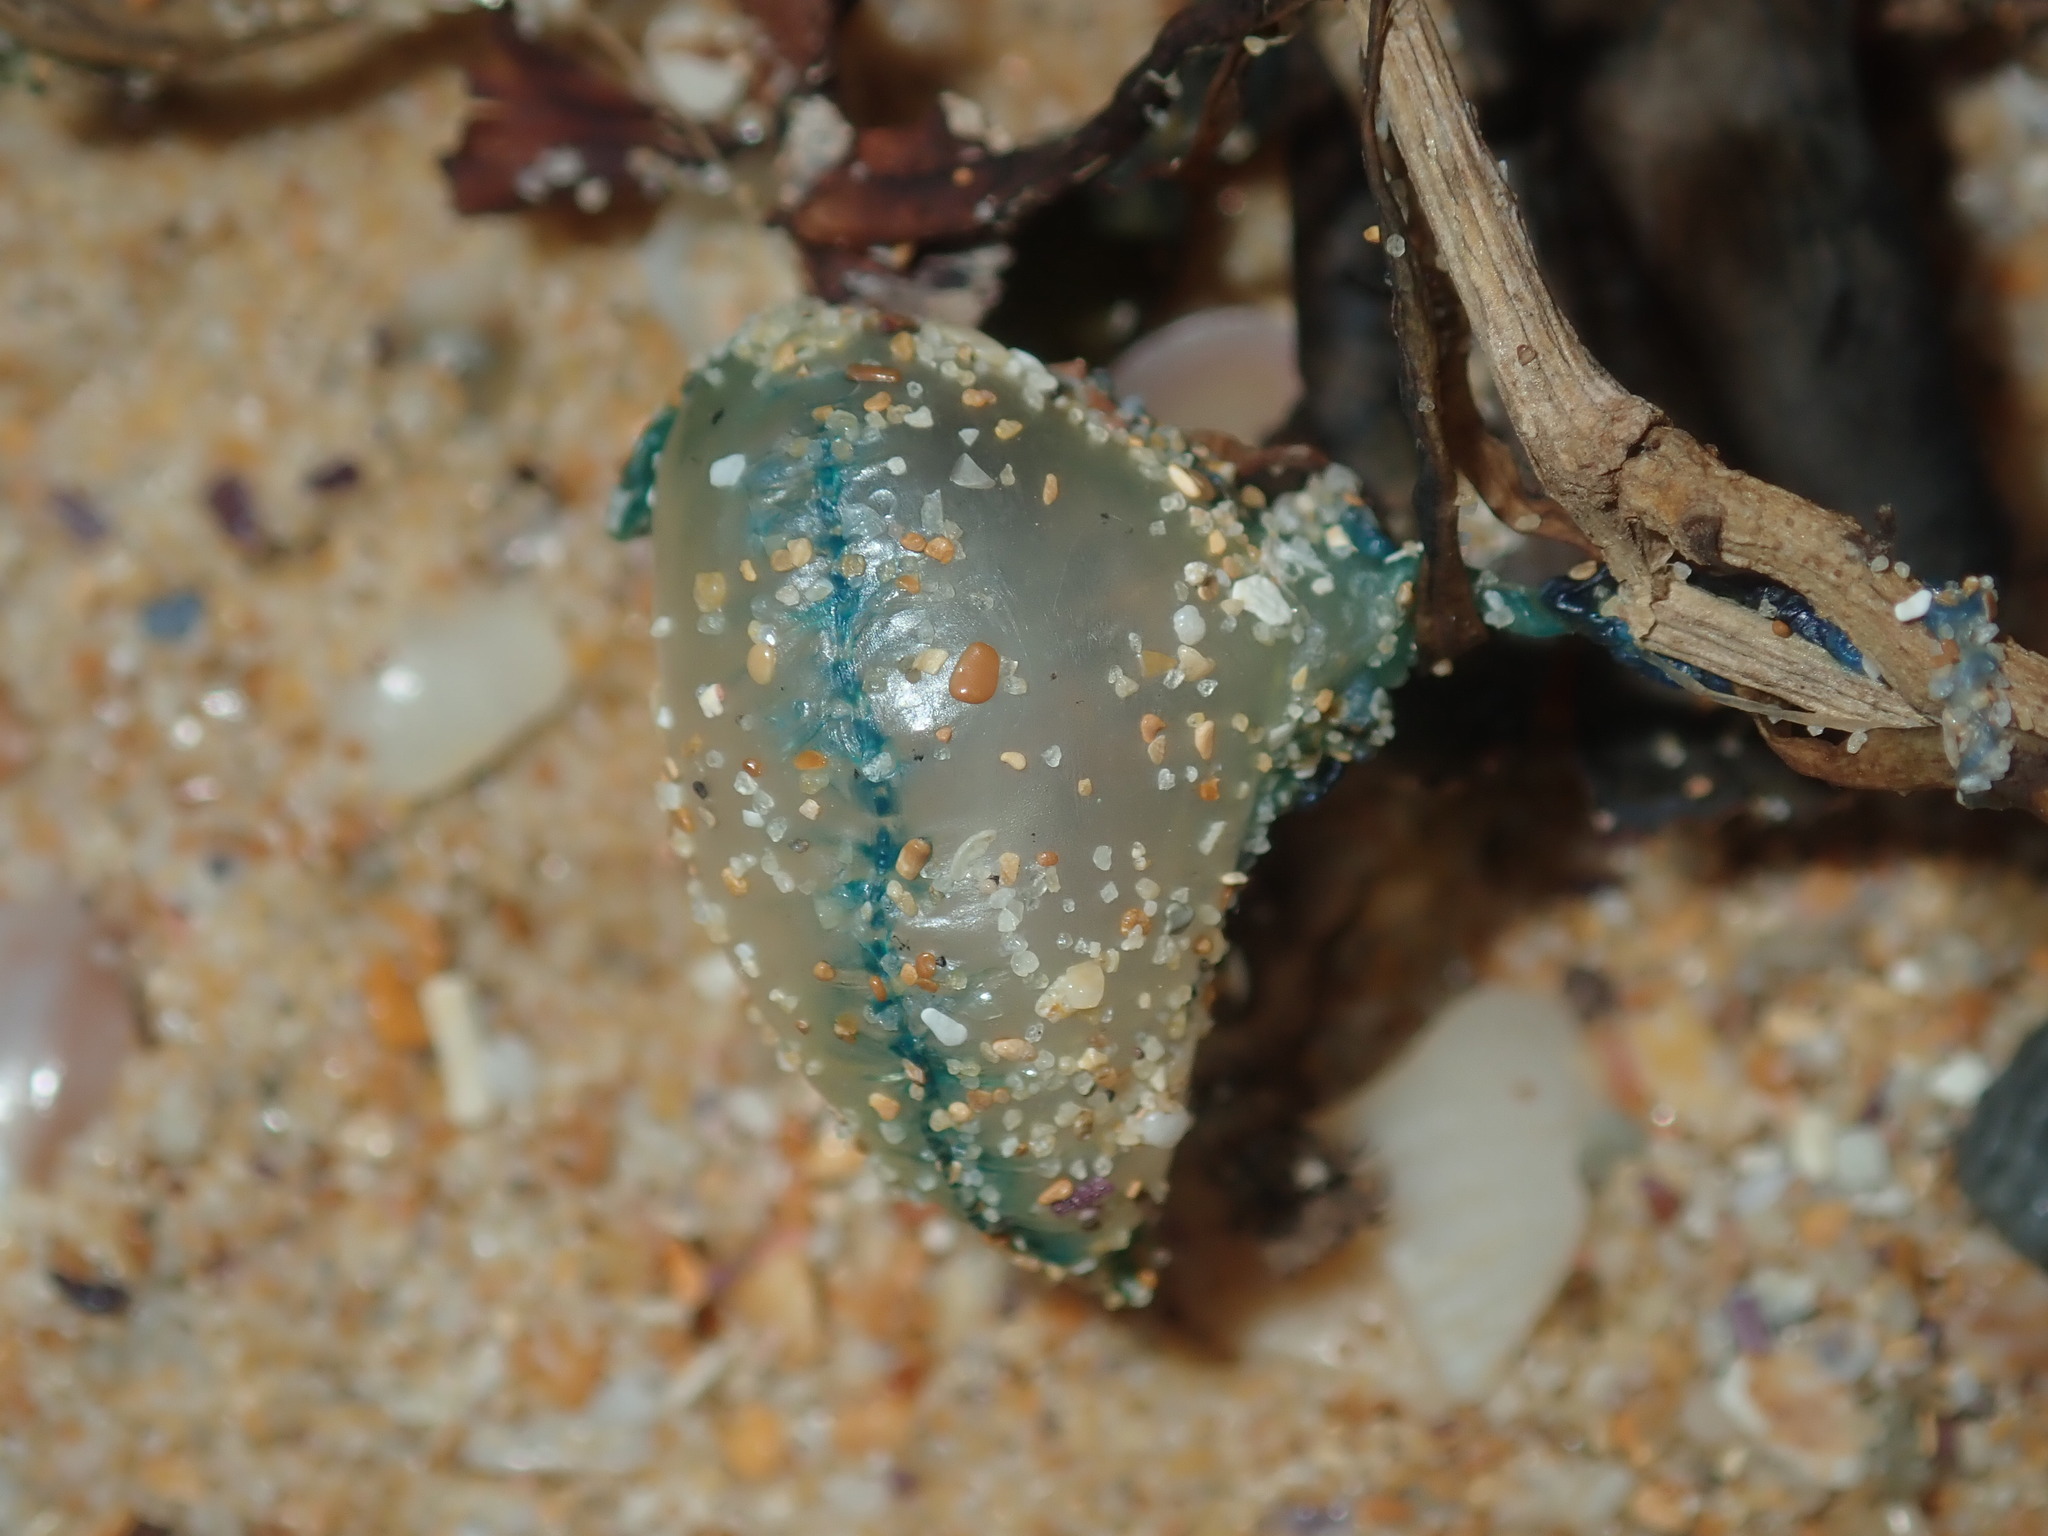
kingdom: Animalia
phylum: Cnidaria
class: Hydrozoa
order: Siphonophorae
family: Physaliidae
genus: Physalia
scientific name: Physalia physalis
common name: Portuguese man-of-war
